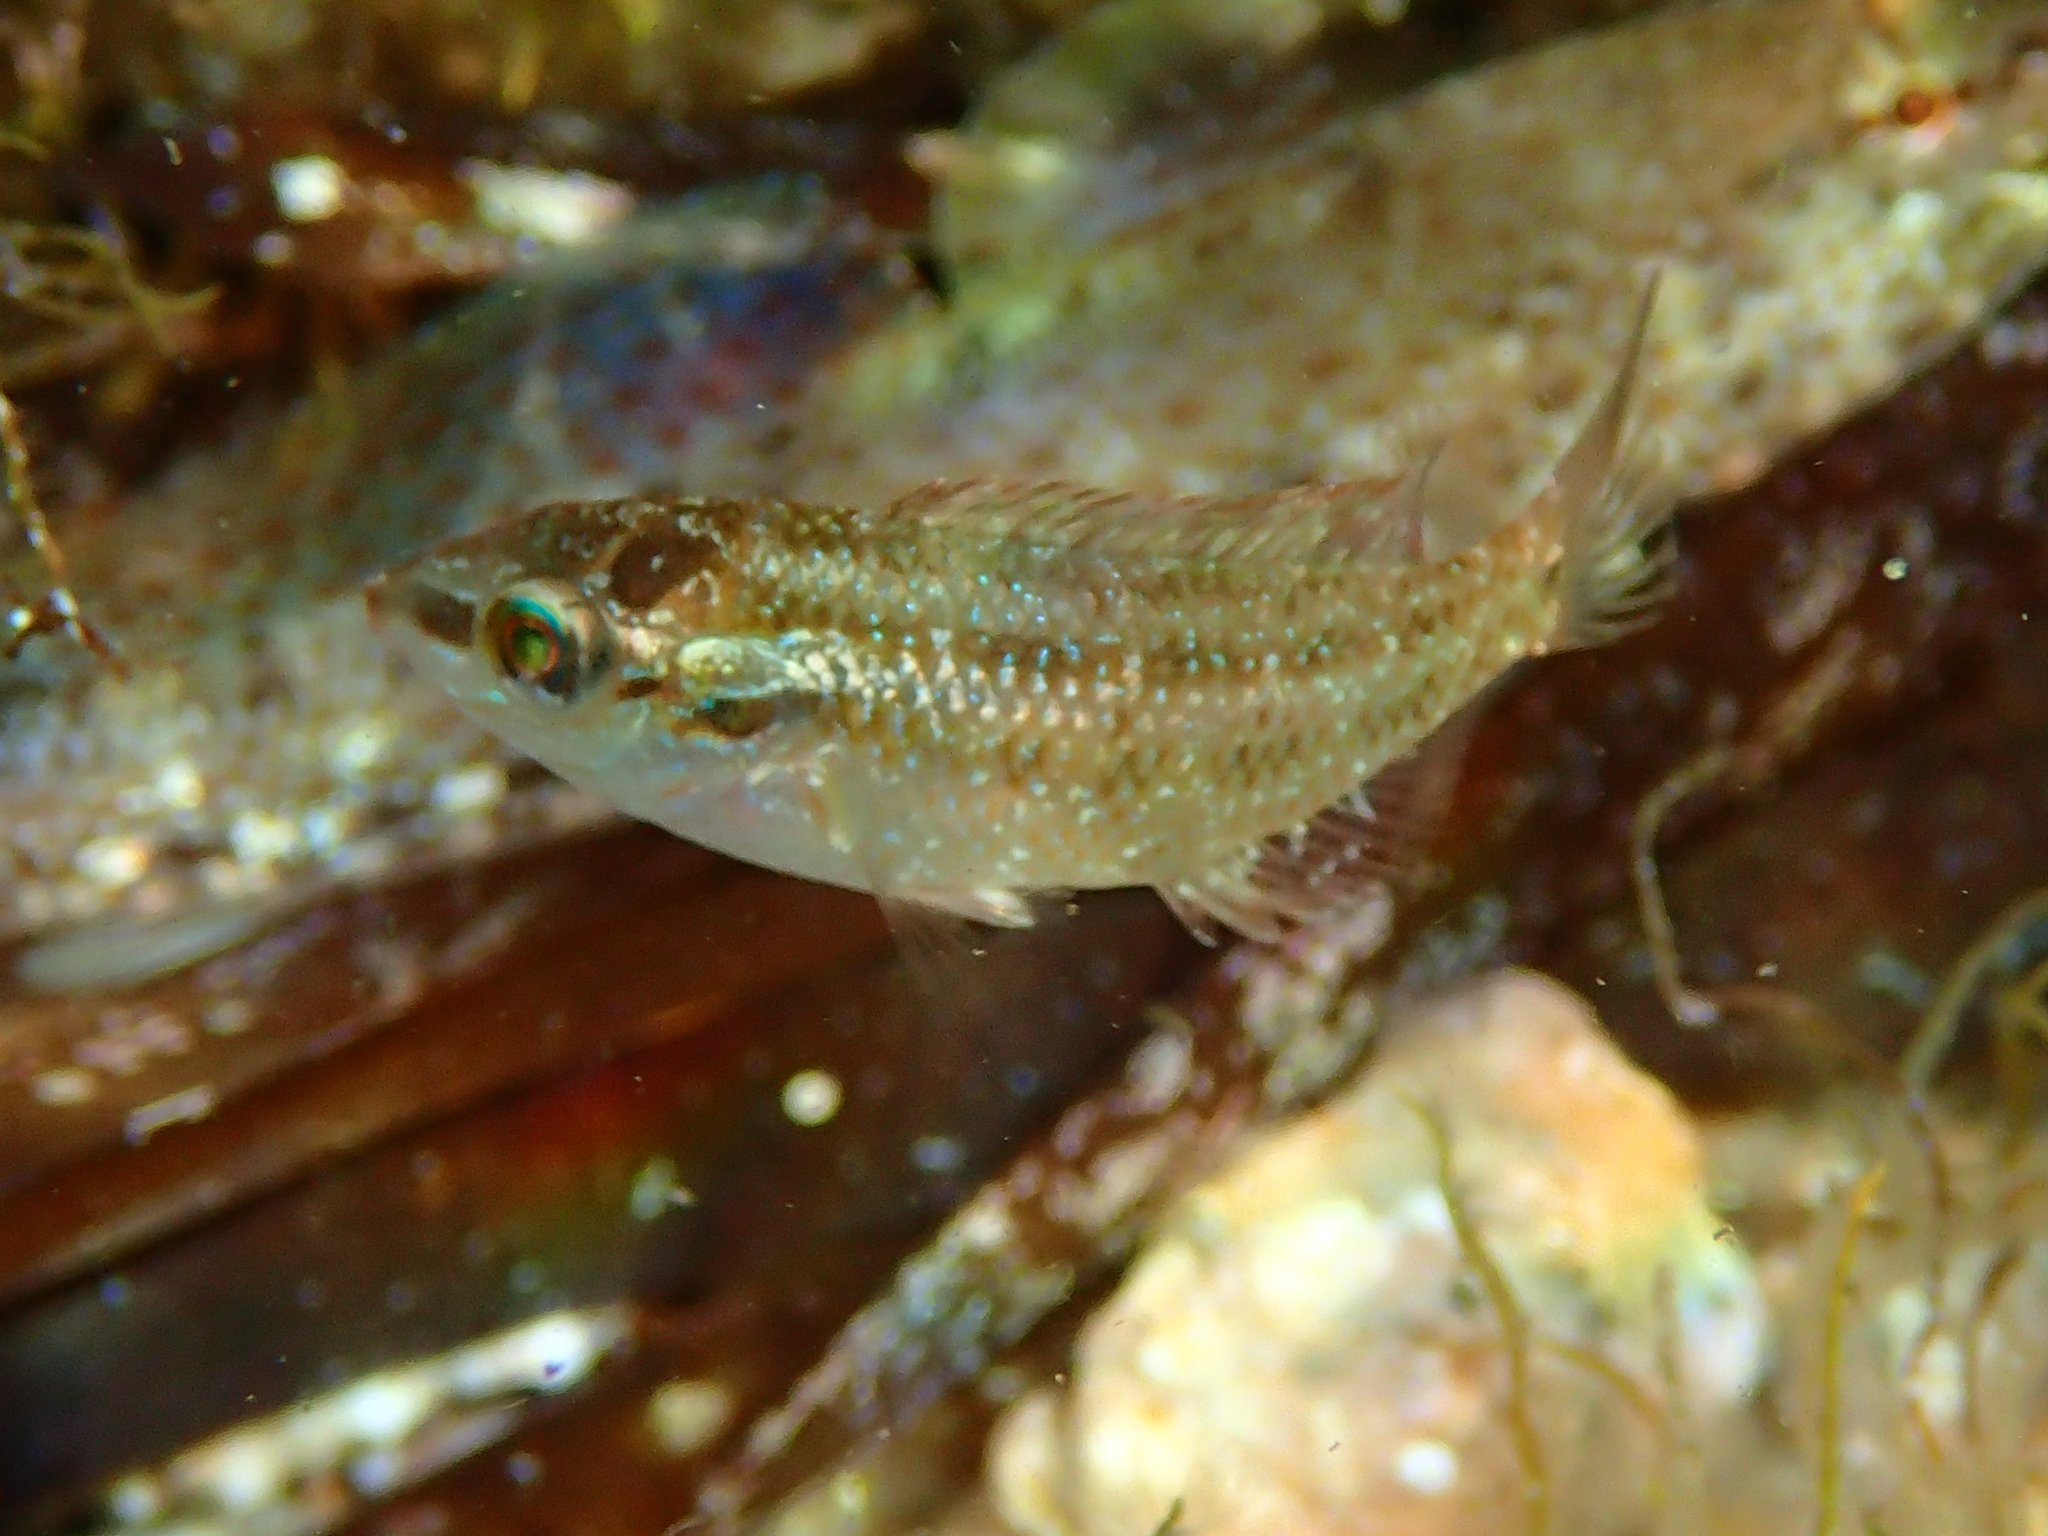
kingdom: Animalia
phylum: Chordata
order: Perciformes
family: Labridae
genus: Symphodus
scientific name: Symphodus roissali
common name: Five-spotted wrasse
